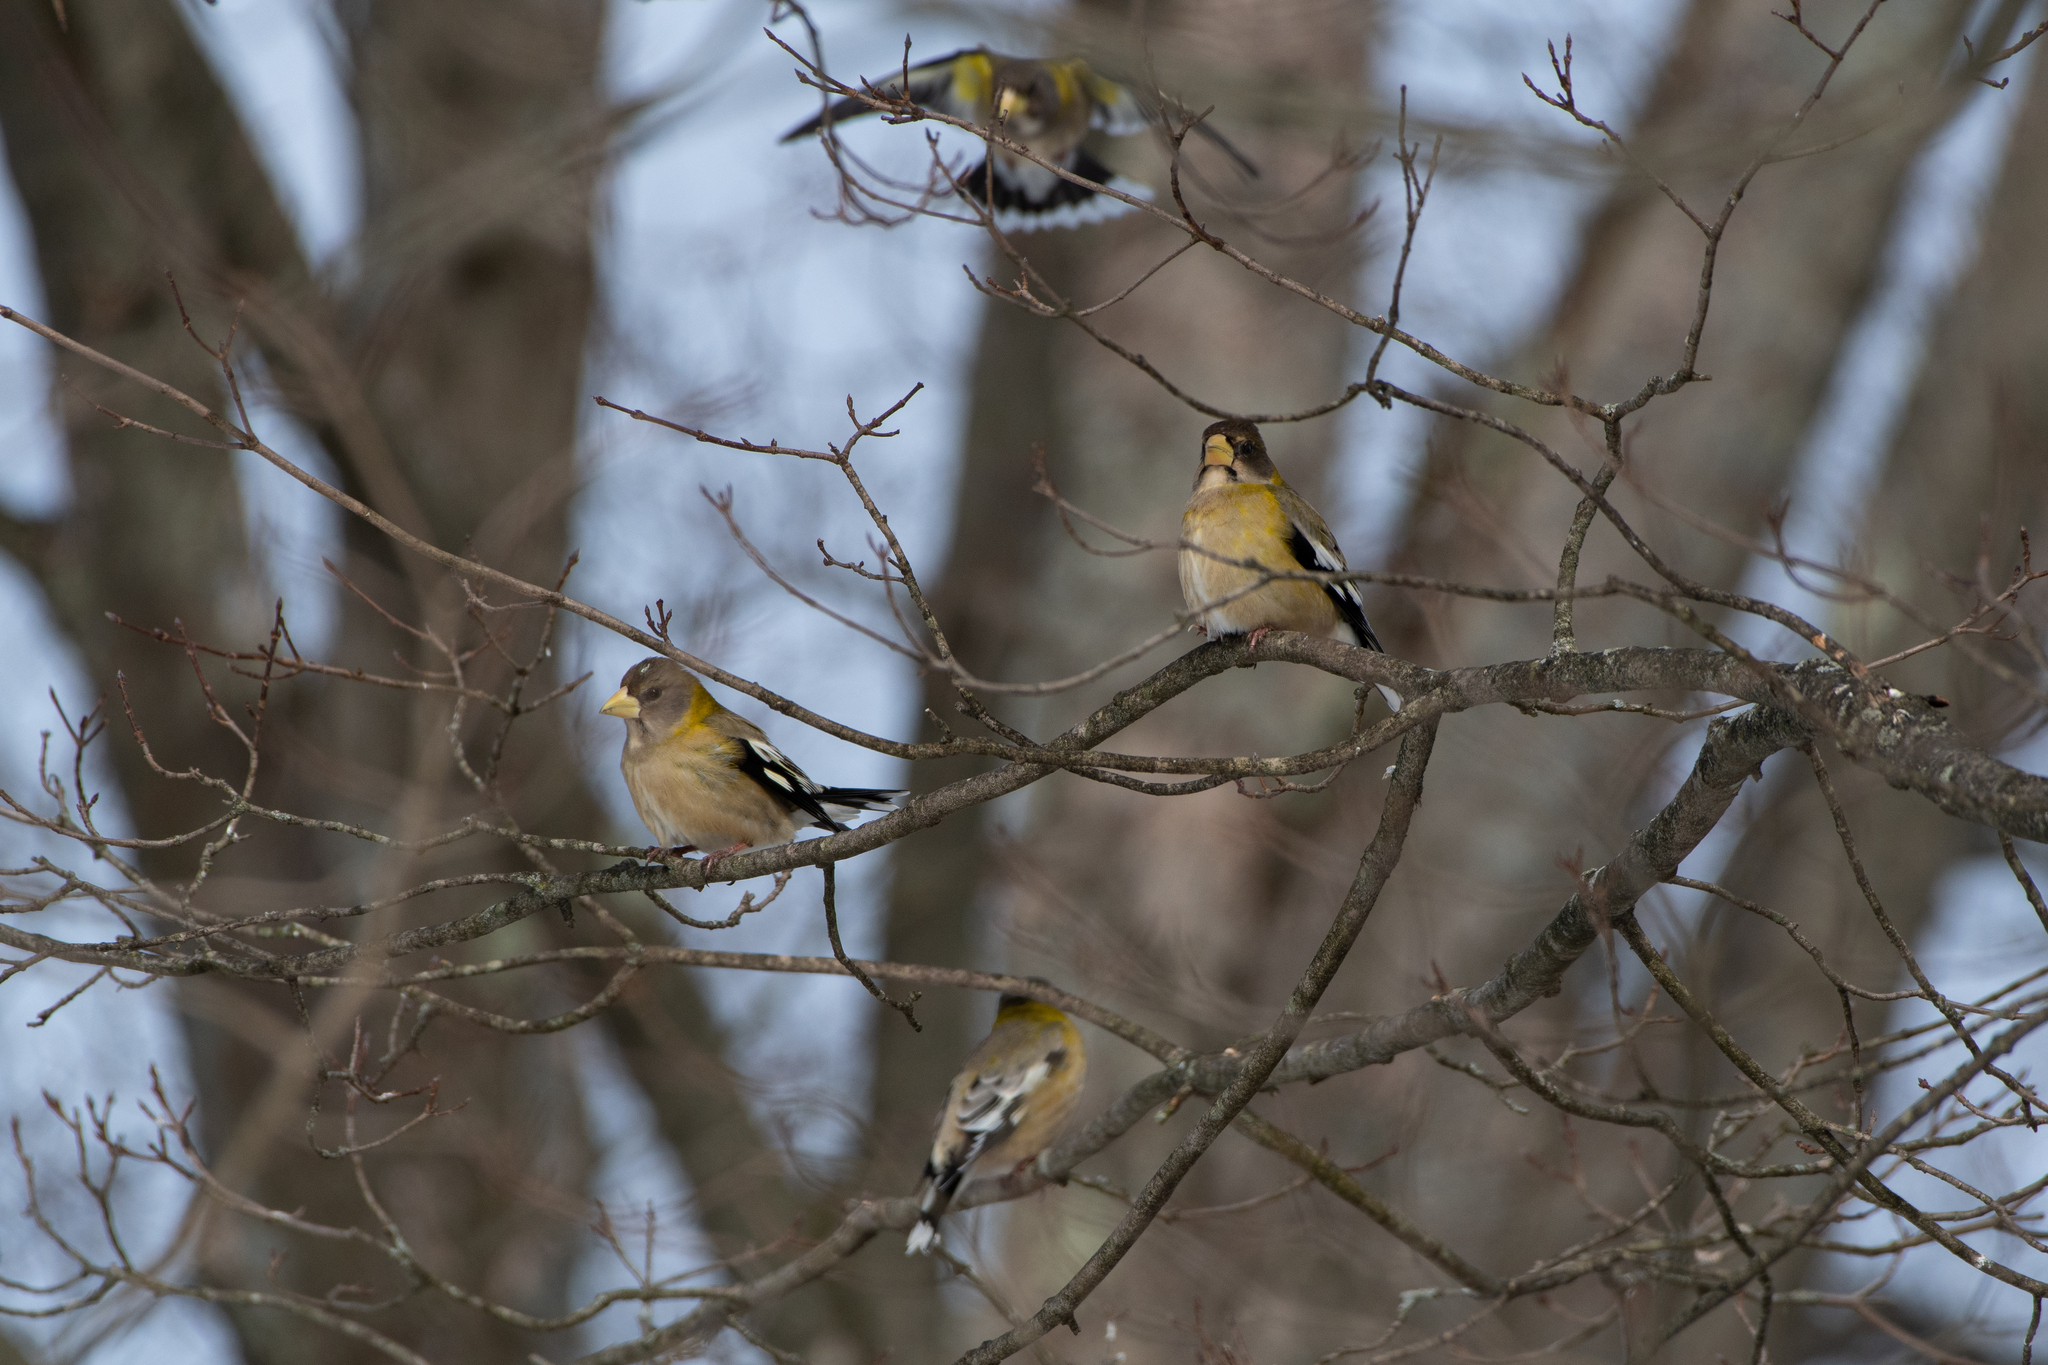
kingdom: Animalia
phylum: Chordata
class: Aves
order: Passeriformes
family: Fringillidae
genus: Hesperiphona
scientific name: Hesperiphona vespertina
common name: Evening grosbeak
